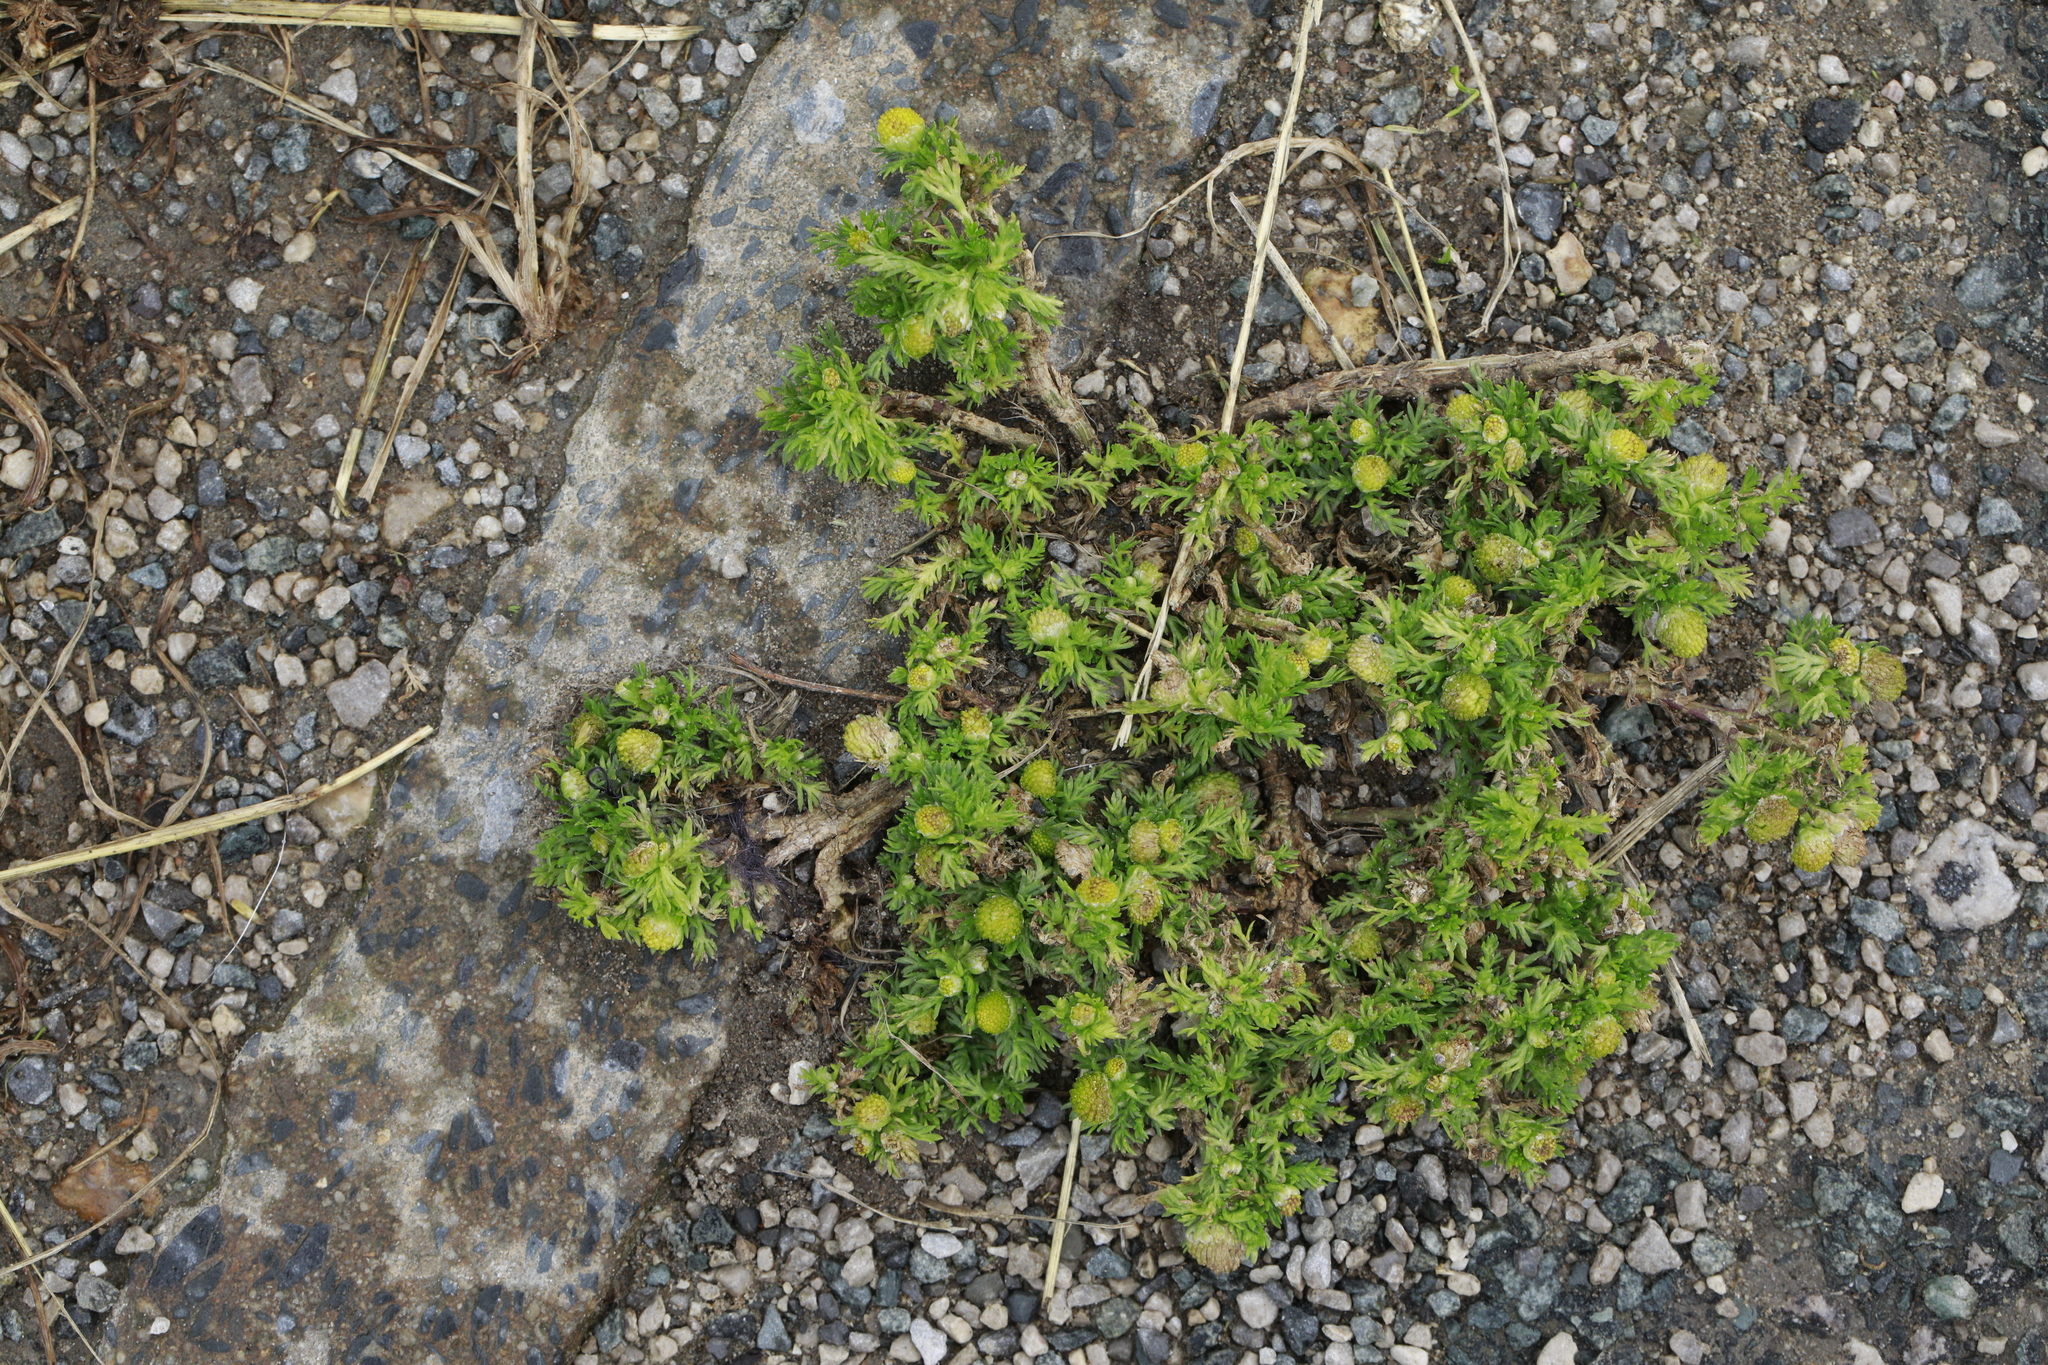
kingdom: Plantae
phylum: Tracheophyta
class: Magnoliopsida
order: Asterales
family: Asteraceae
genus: Matricaria
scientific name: Matricaria discoidea
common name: Disc mayweed
